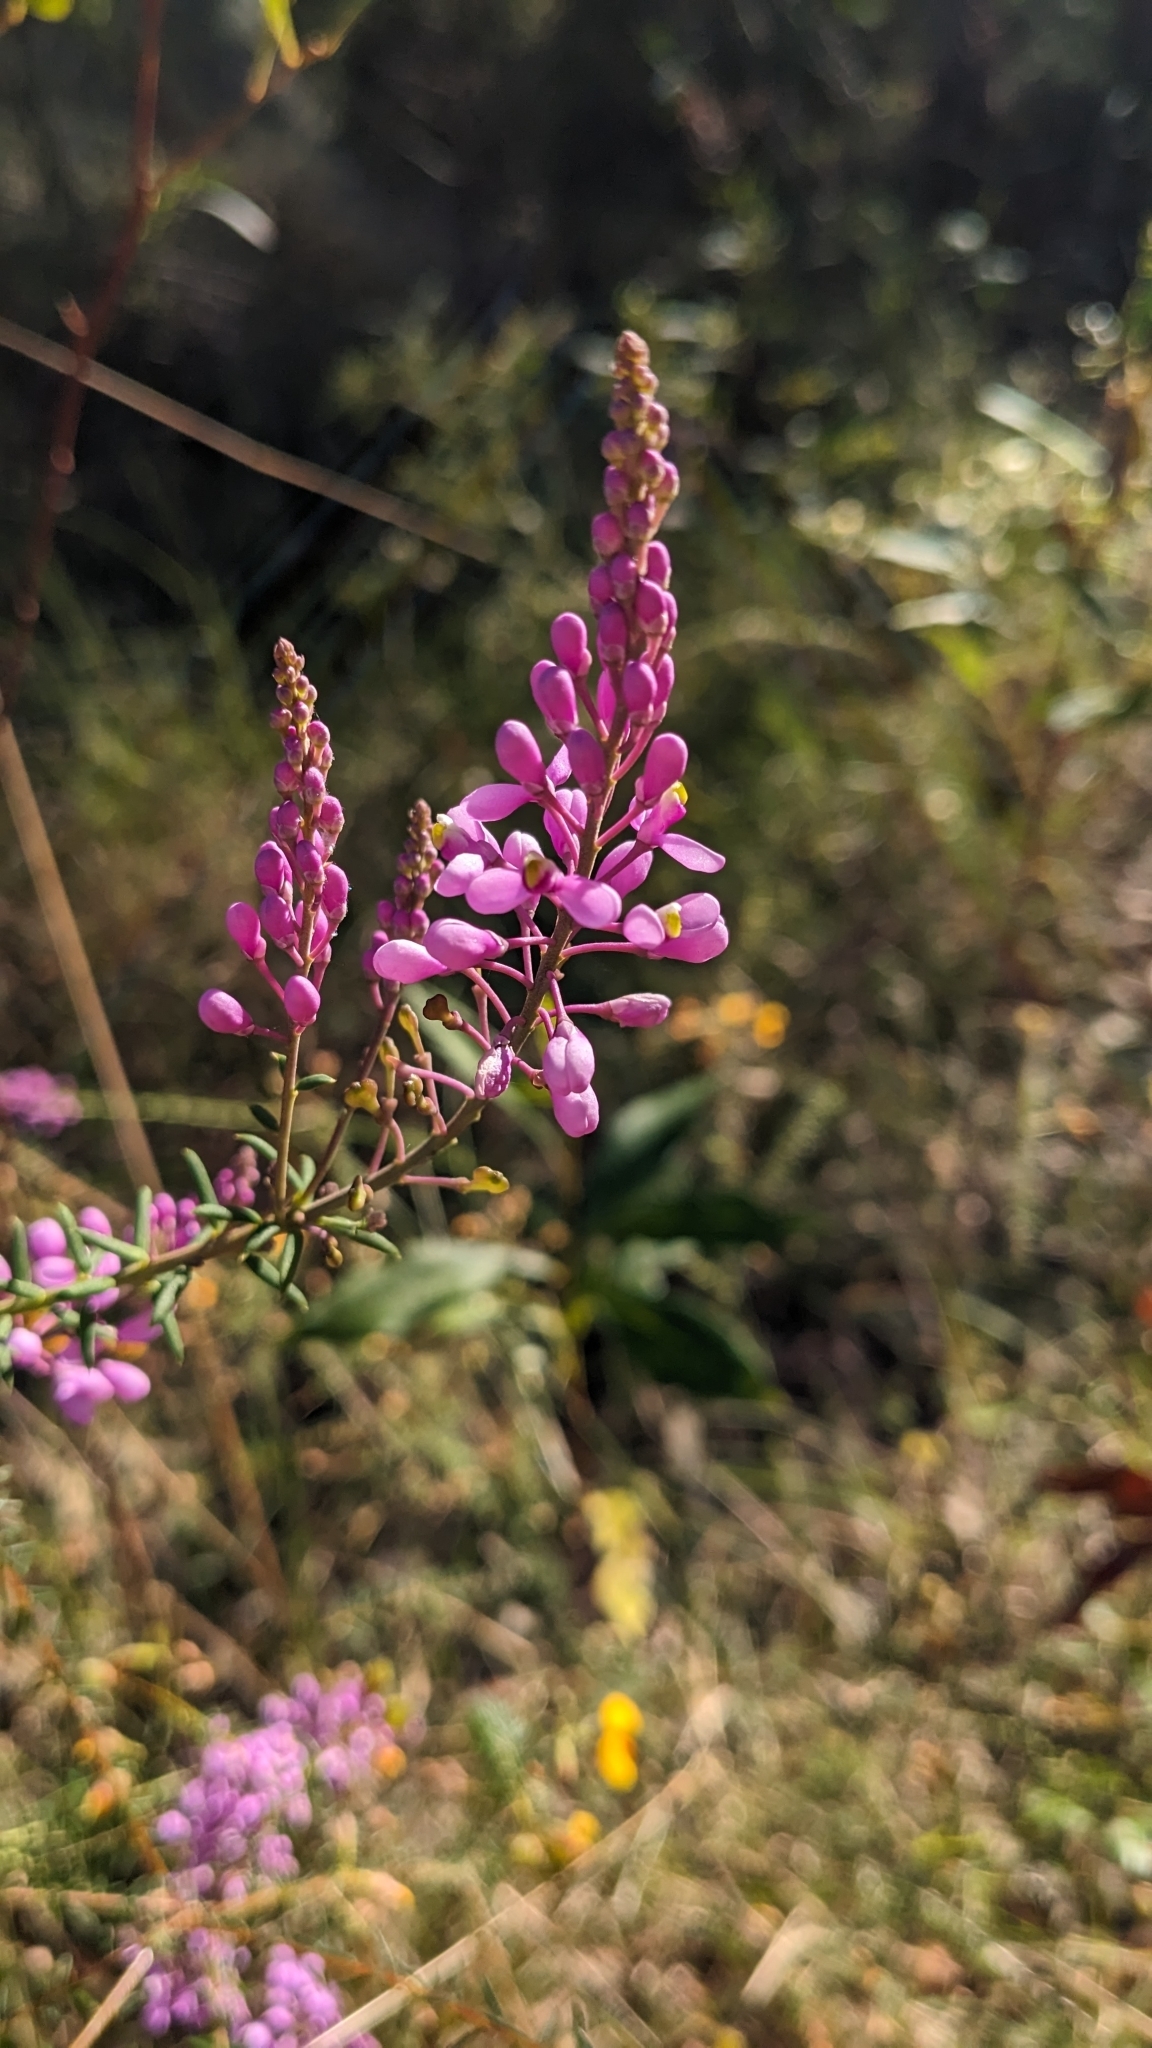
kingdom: Plantae
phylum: Tracheophyta
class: Magnoliopsida
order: Fabales
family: Polygalaceae
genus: Comesperma
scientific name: Comesperma ericinum
